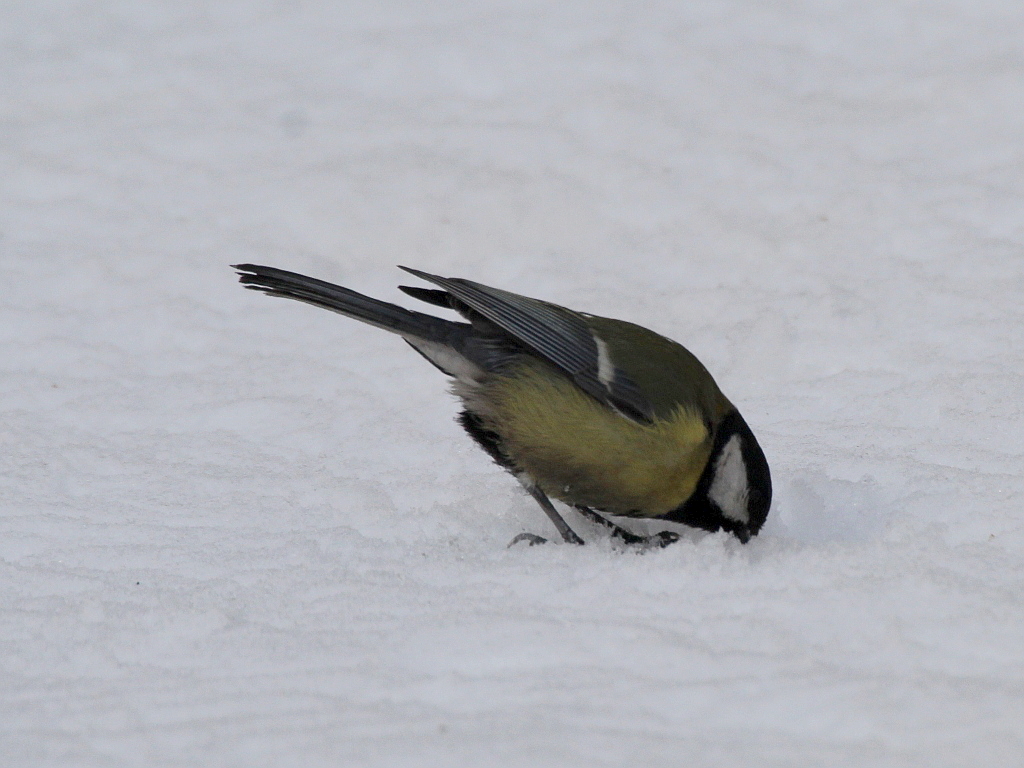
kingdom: Animalia
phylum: Chordata
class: Aves
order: Passeriformes
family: Paridae
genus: Parus
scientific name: Parus major
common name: Great tit
